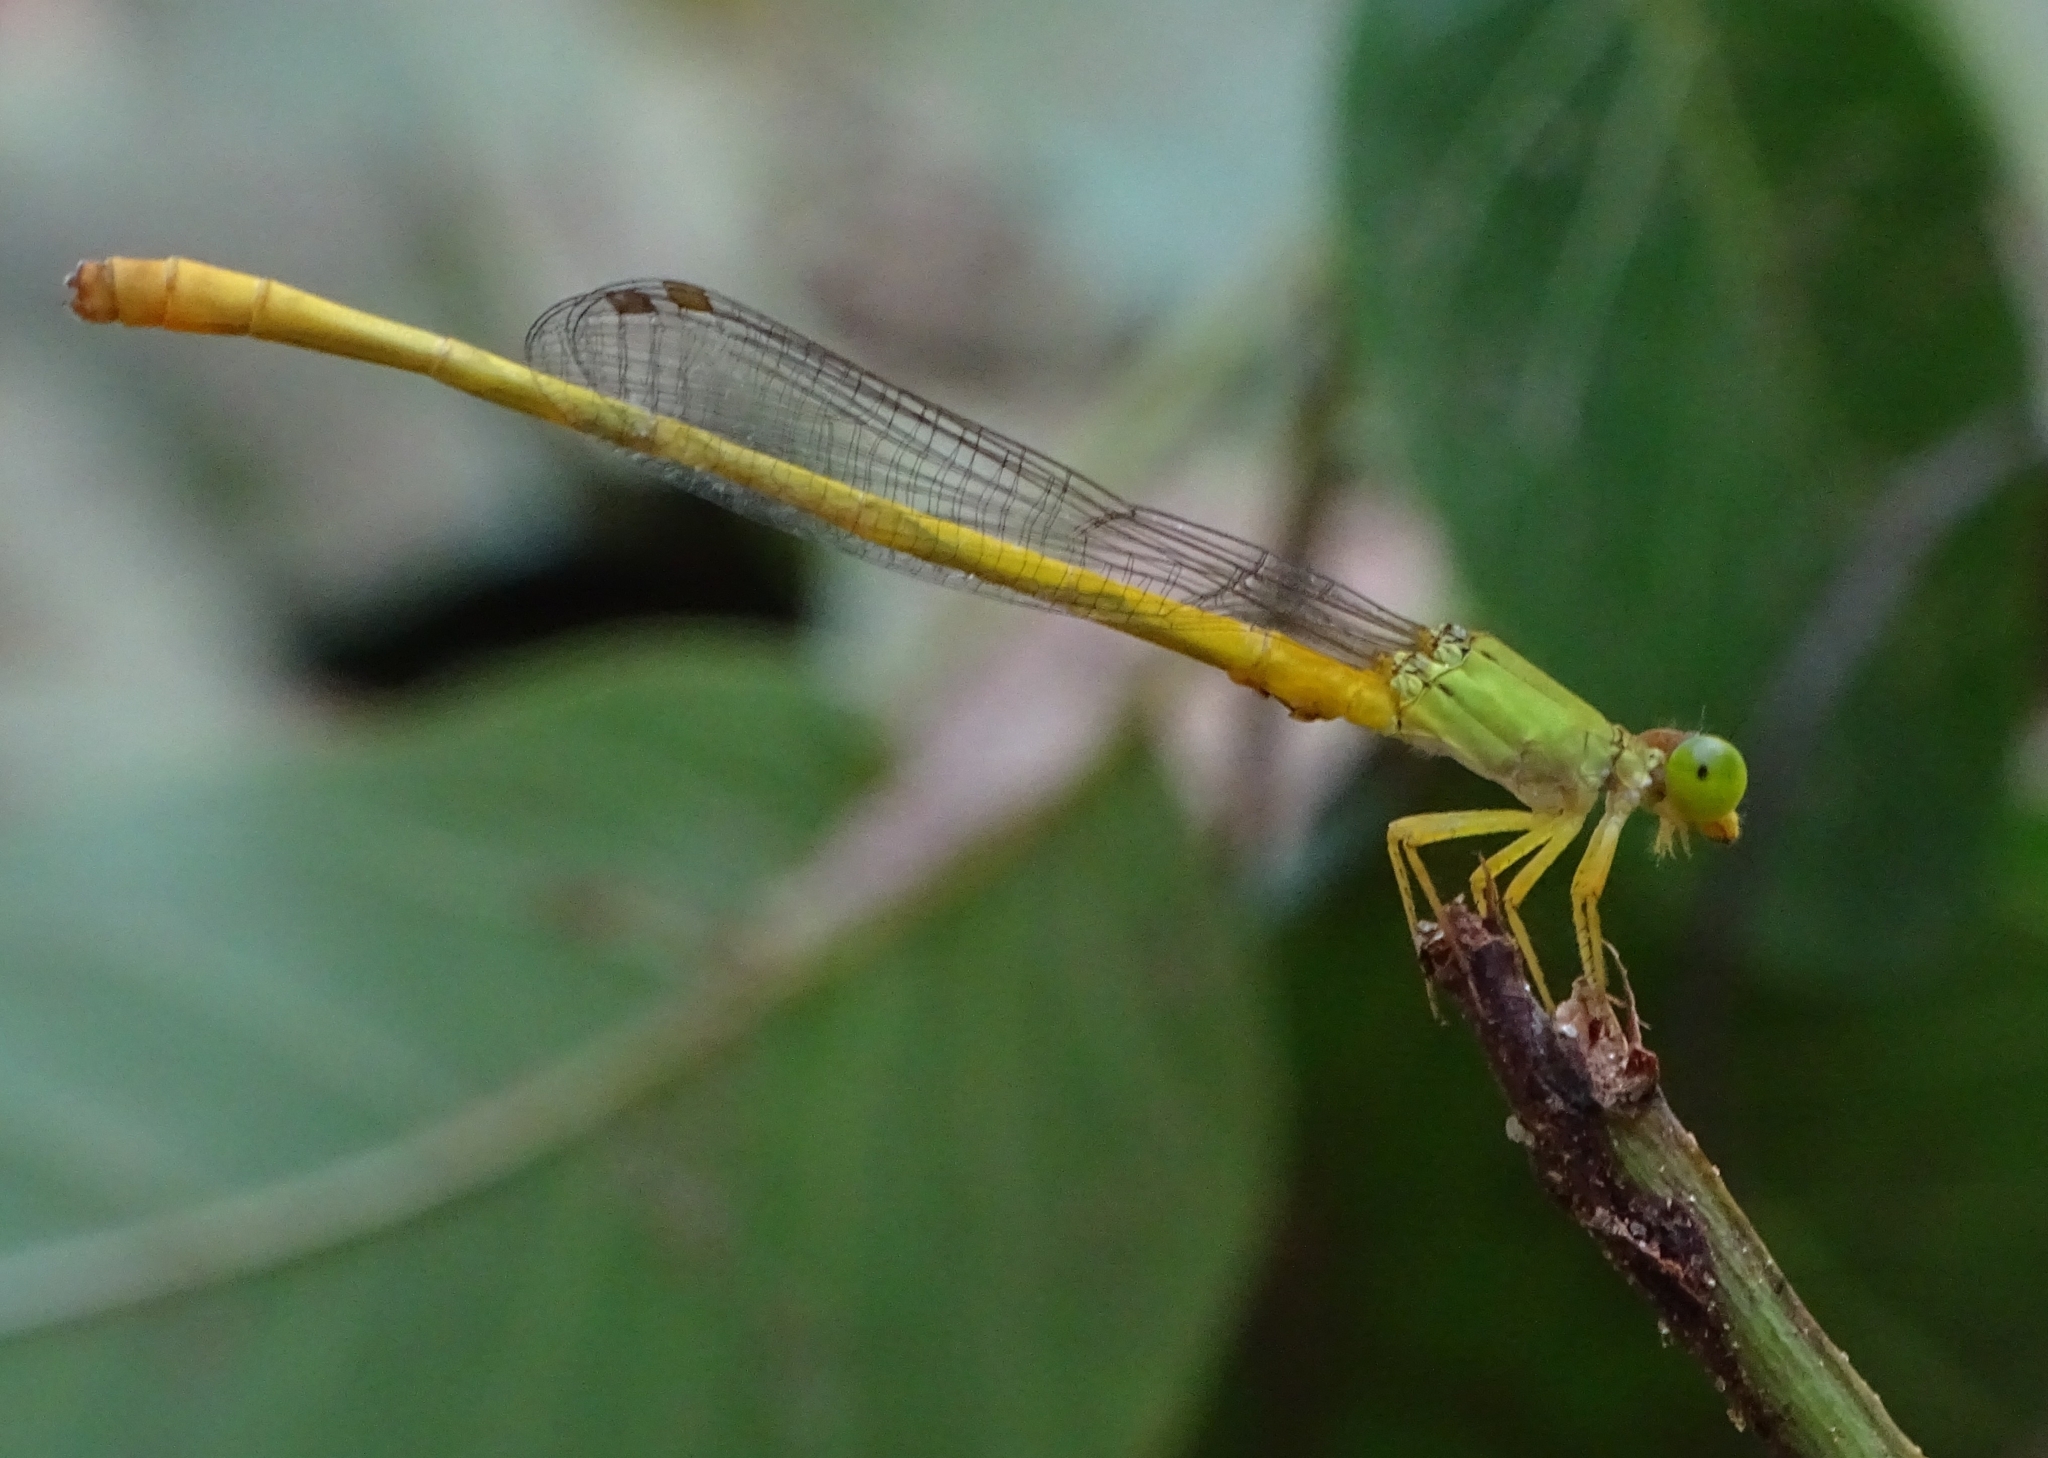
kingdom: Animalia
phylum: Arthropoda
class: Insecta
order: Odonata
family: Coenagrionidae
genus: Ceriagrion
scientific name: Ceriagrion coromandelianum
